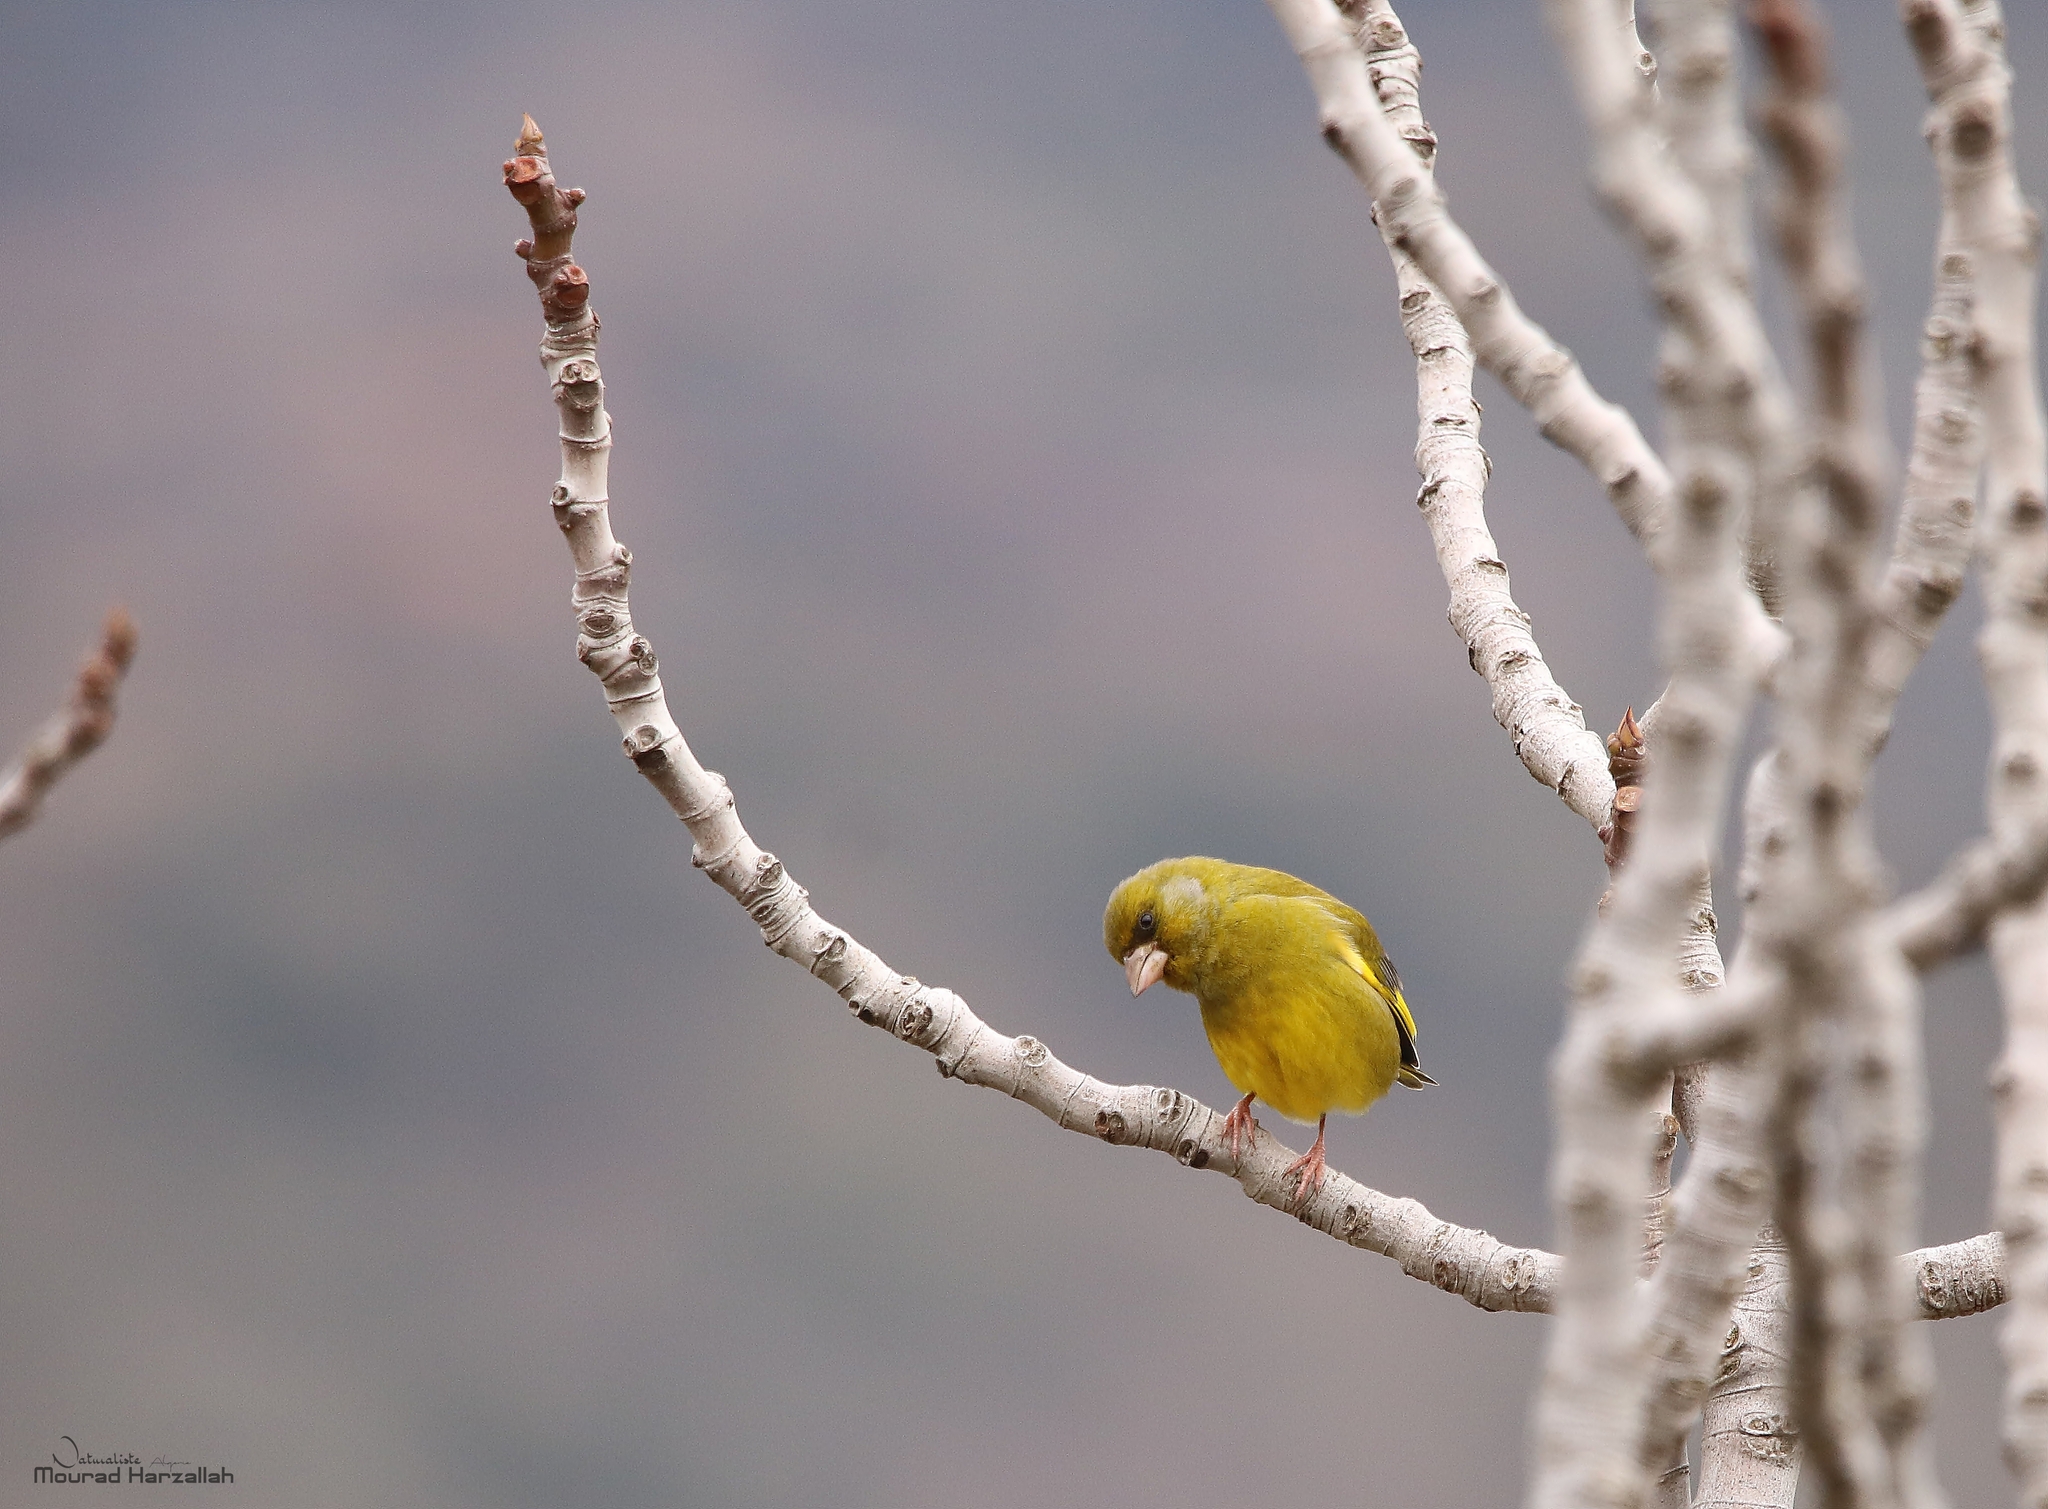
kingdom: Plantae
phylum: Tracheophyta
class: Liliopsida
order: Poales
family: Poaceae
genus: Chloris
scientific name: Chloris chloris
